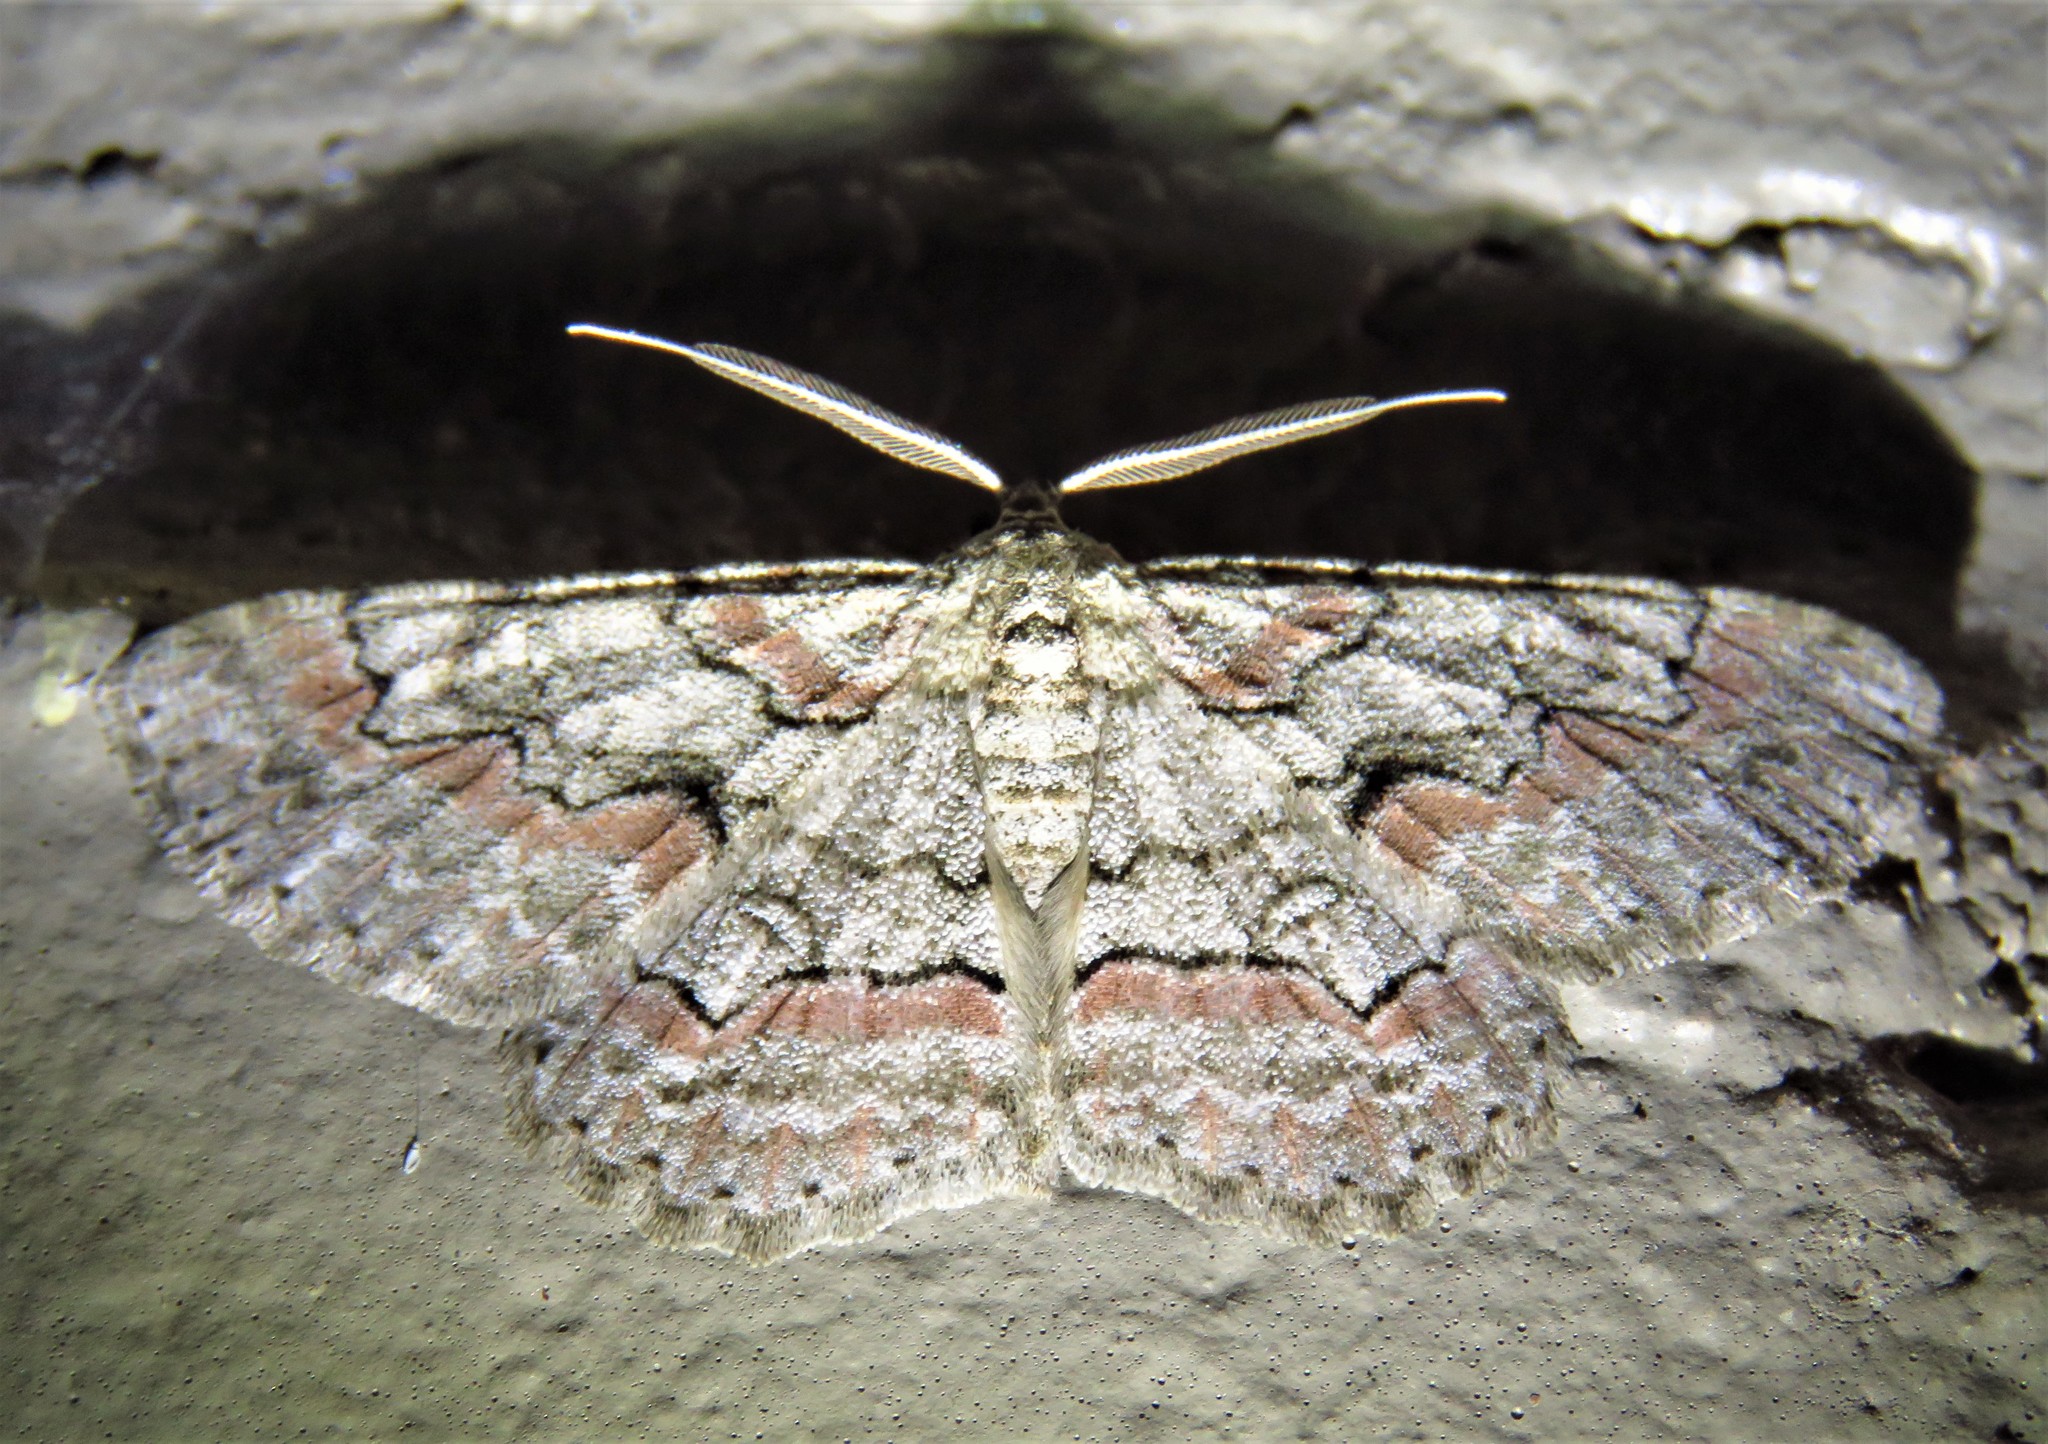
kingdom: Animalia
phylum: Arthropoda
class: Insecta
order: Lepidoptera
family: Geometridae
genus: Iridopsis
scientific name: Iridopsis defectaria
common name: Brown-shaded gray
